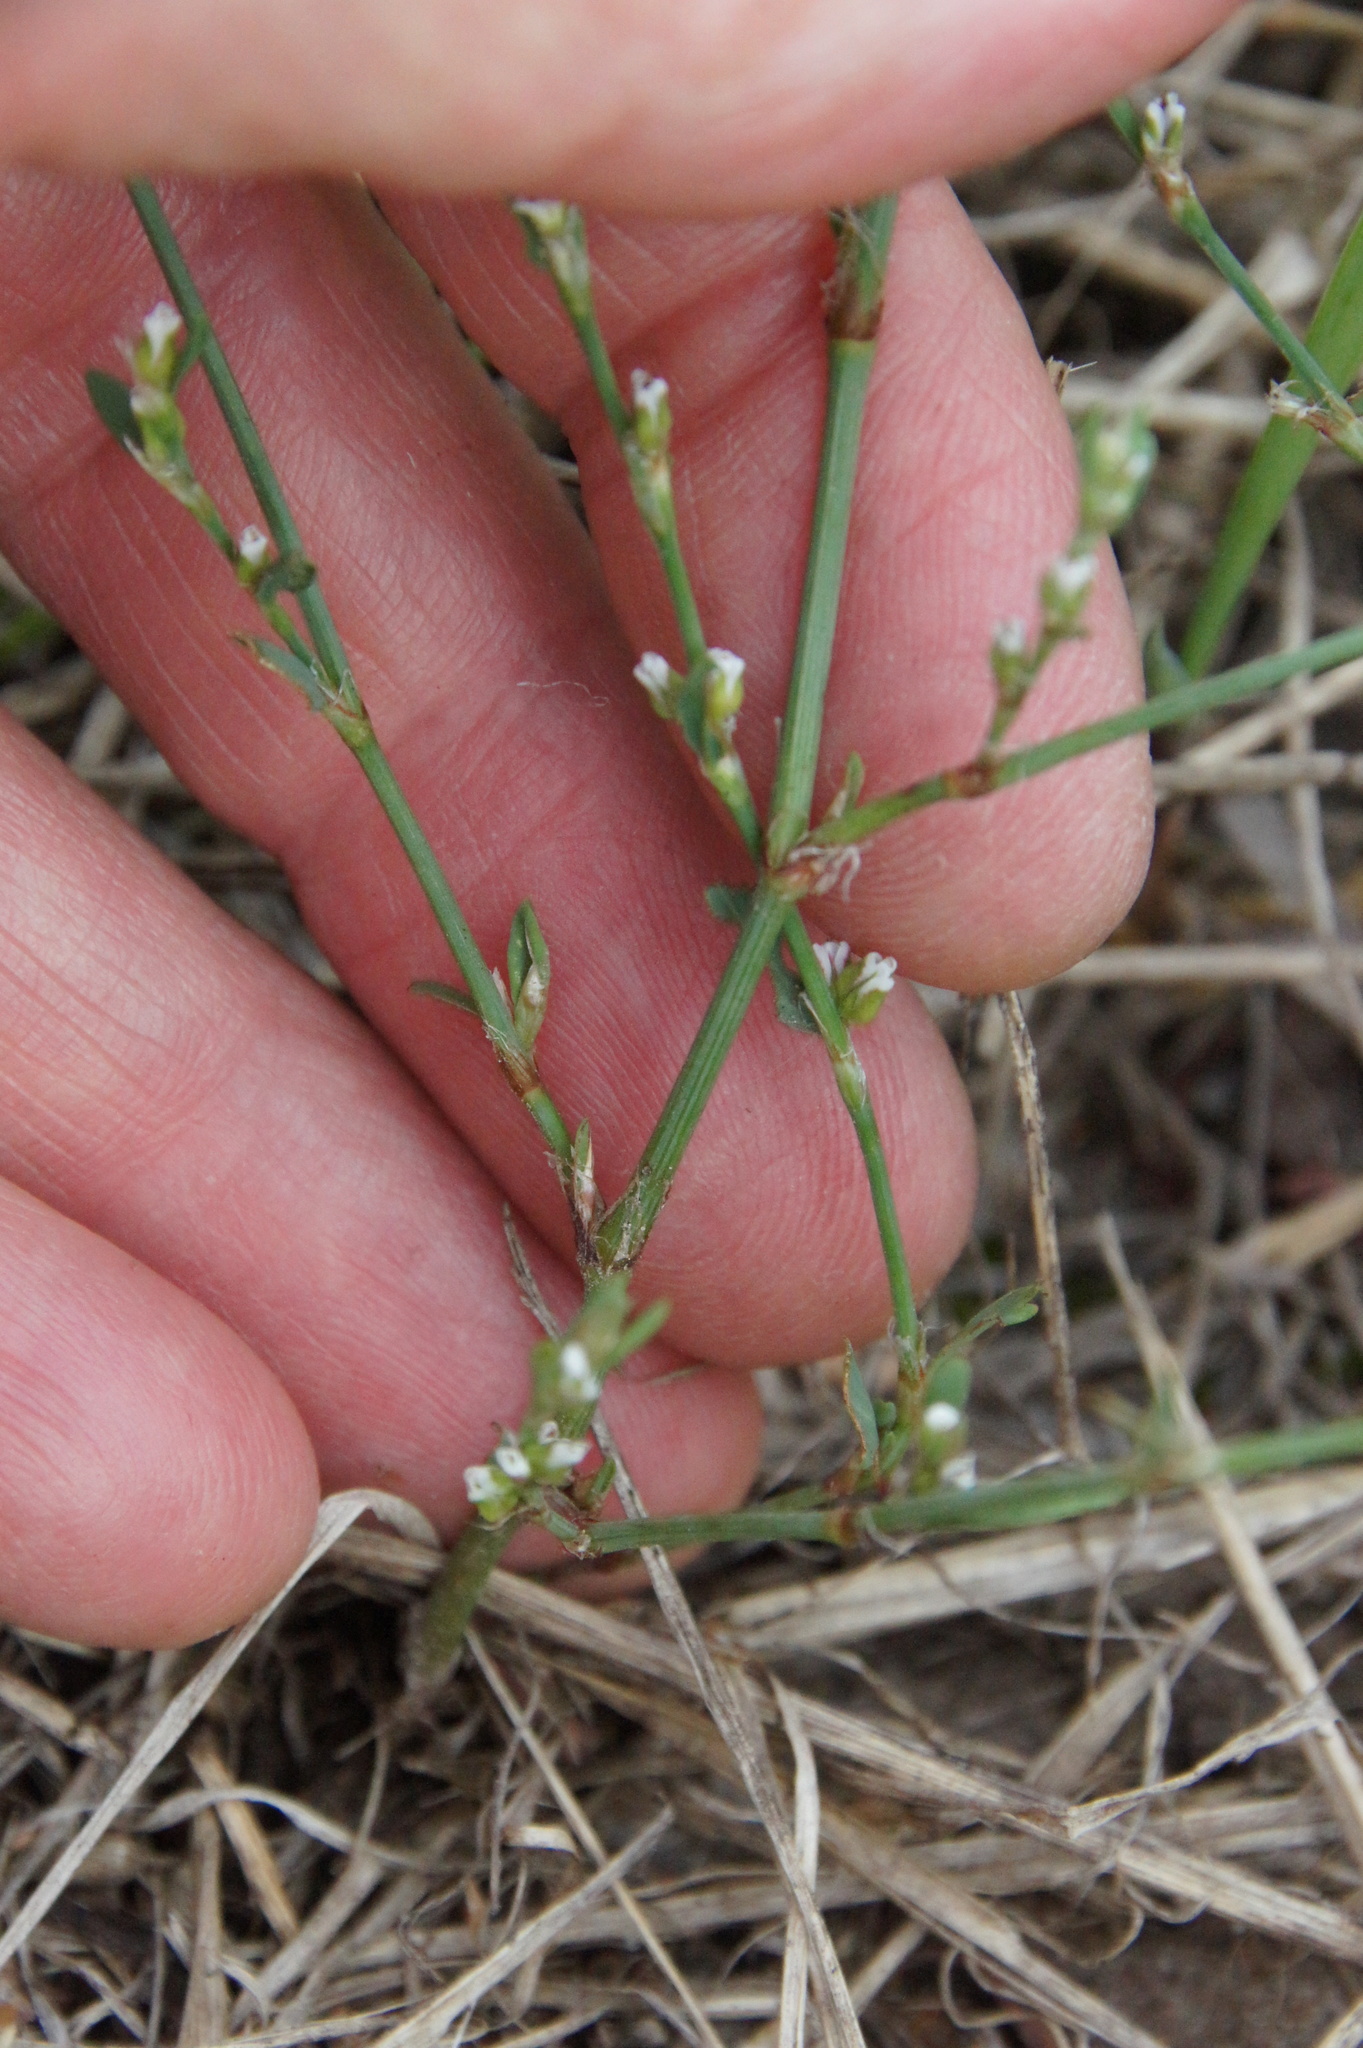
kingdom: Plantae
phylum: Tracheophyta
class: Magnoliopsida
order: Caryophyllales
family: Polygonaceae
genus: Polygonum
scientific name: Polygonum aviculare
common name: Prostrate knotweed
